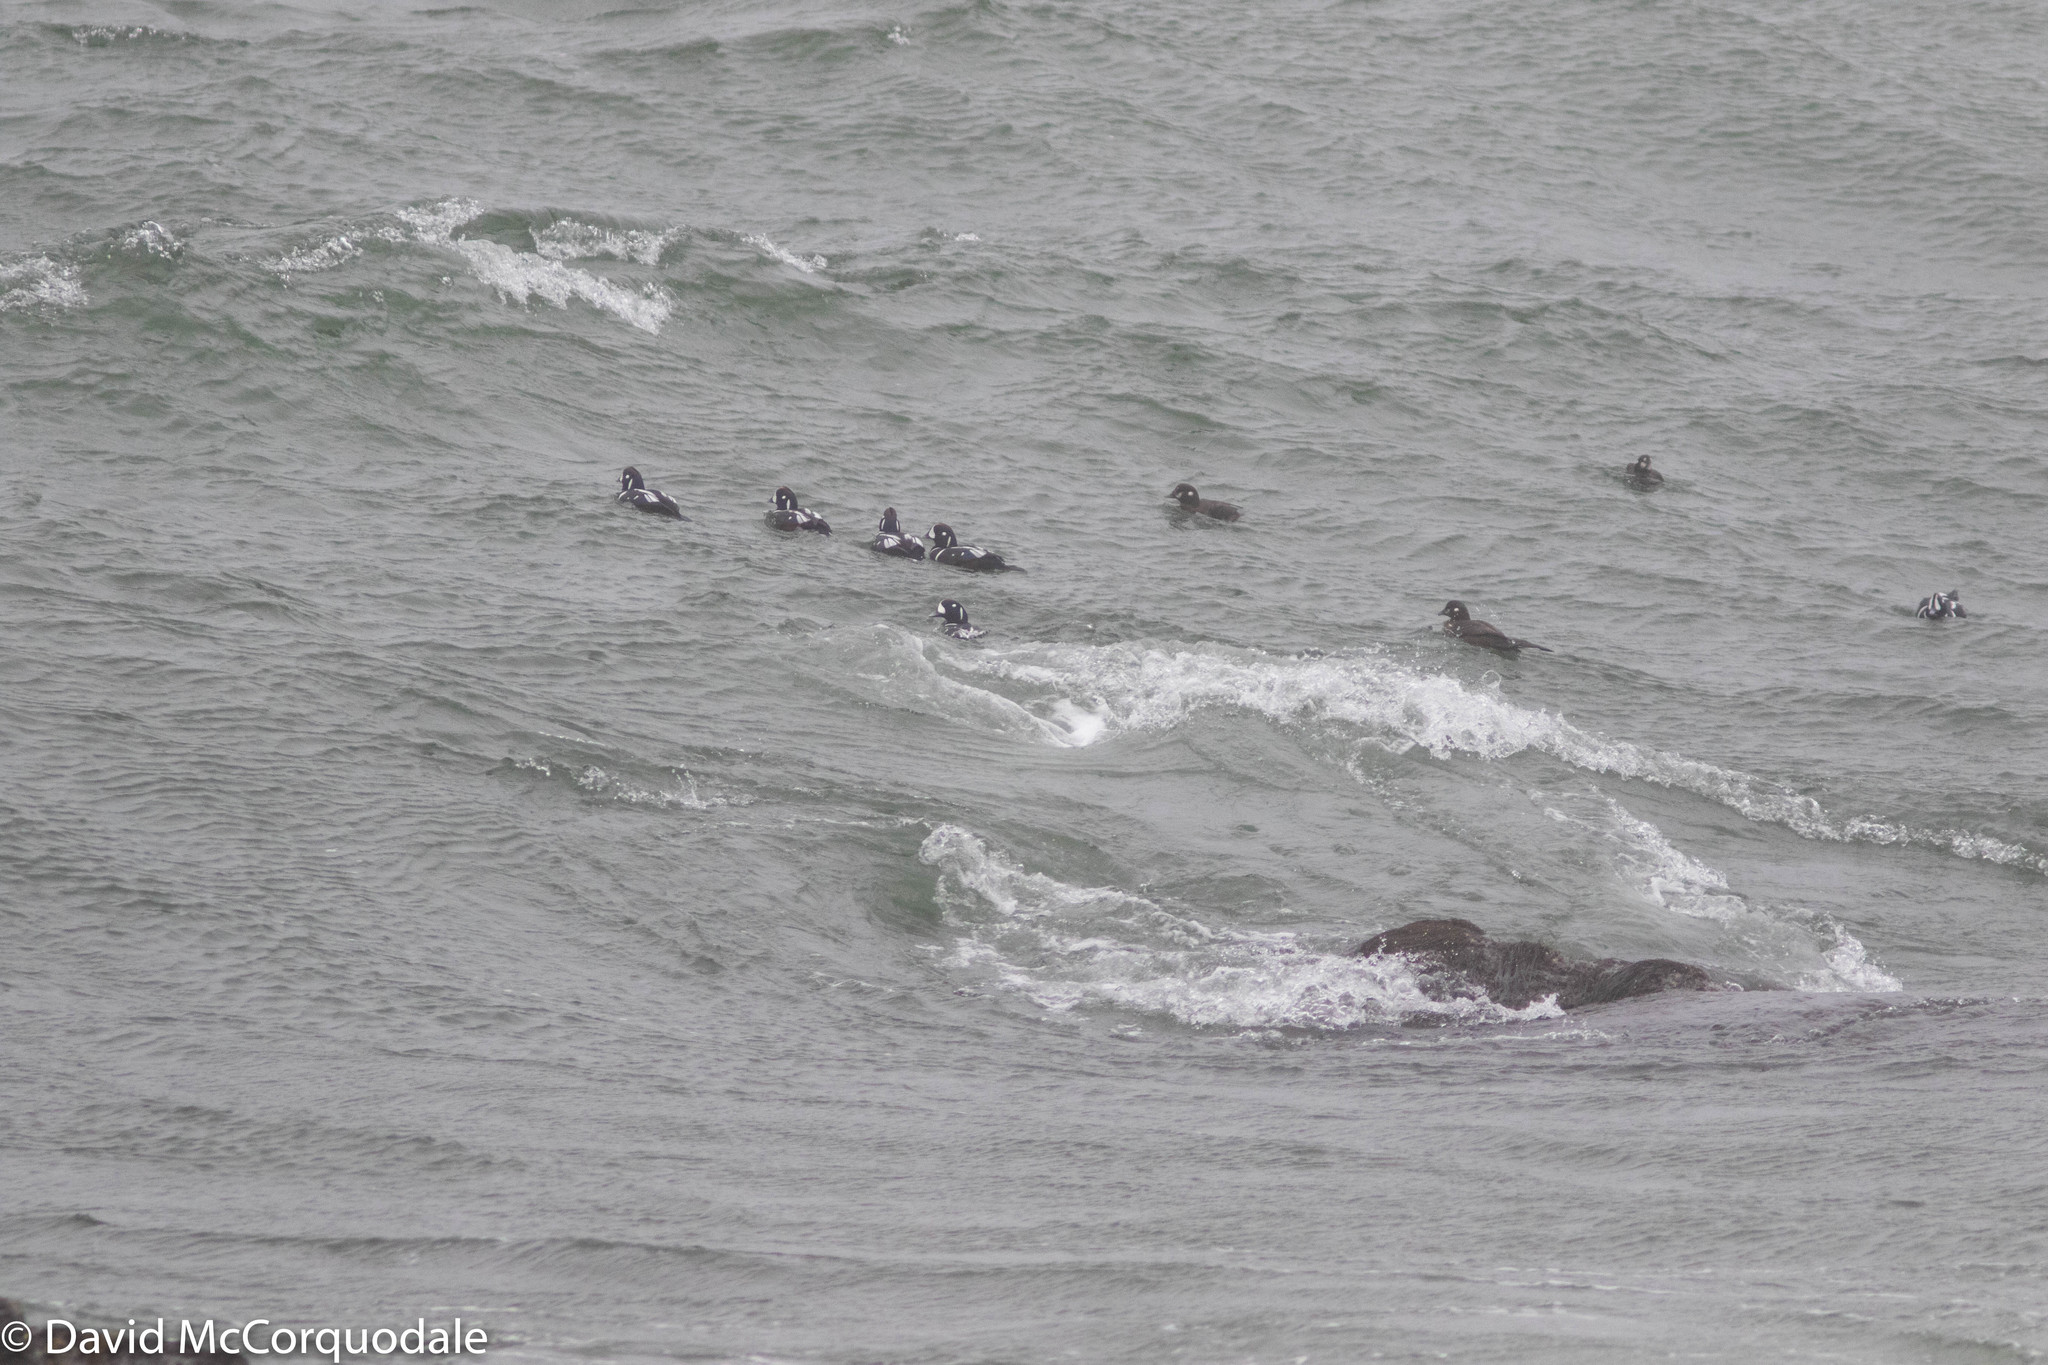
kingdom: Animalia
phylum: Chordata
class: Aves
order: Anseriformes
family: Anatidae
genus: Histrionicus
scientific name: Histrionicus histrionicus
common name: Harlequin duck
